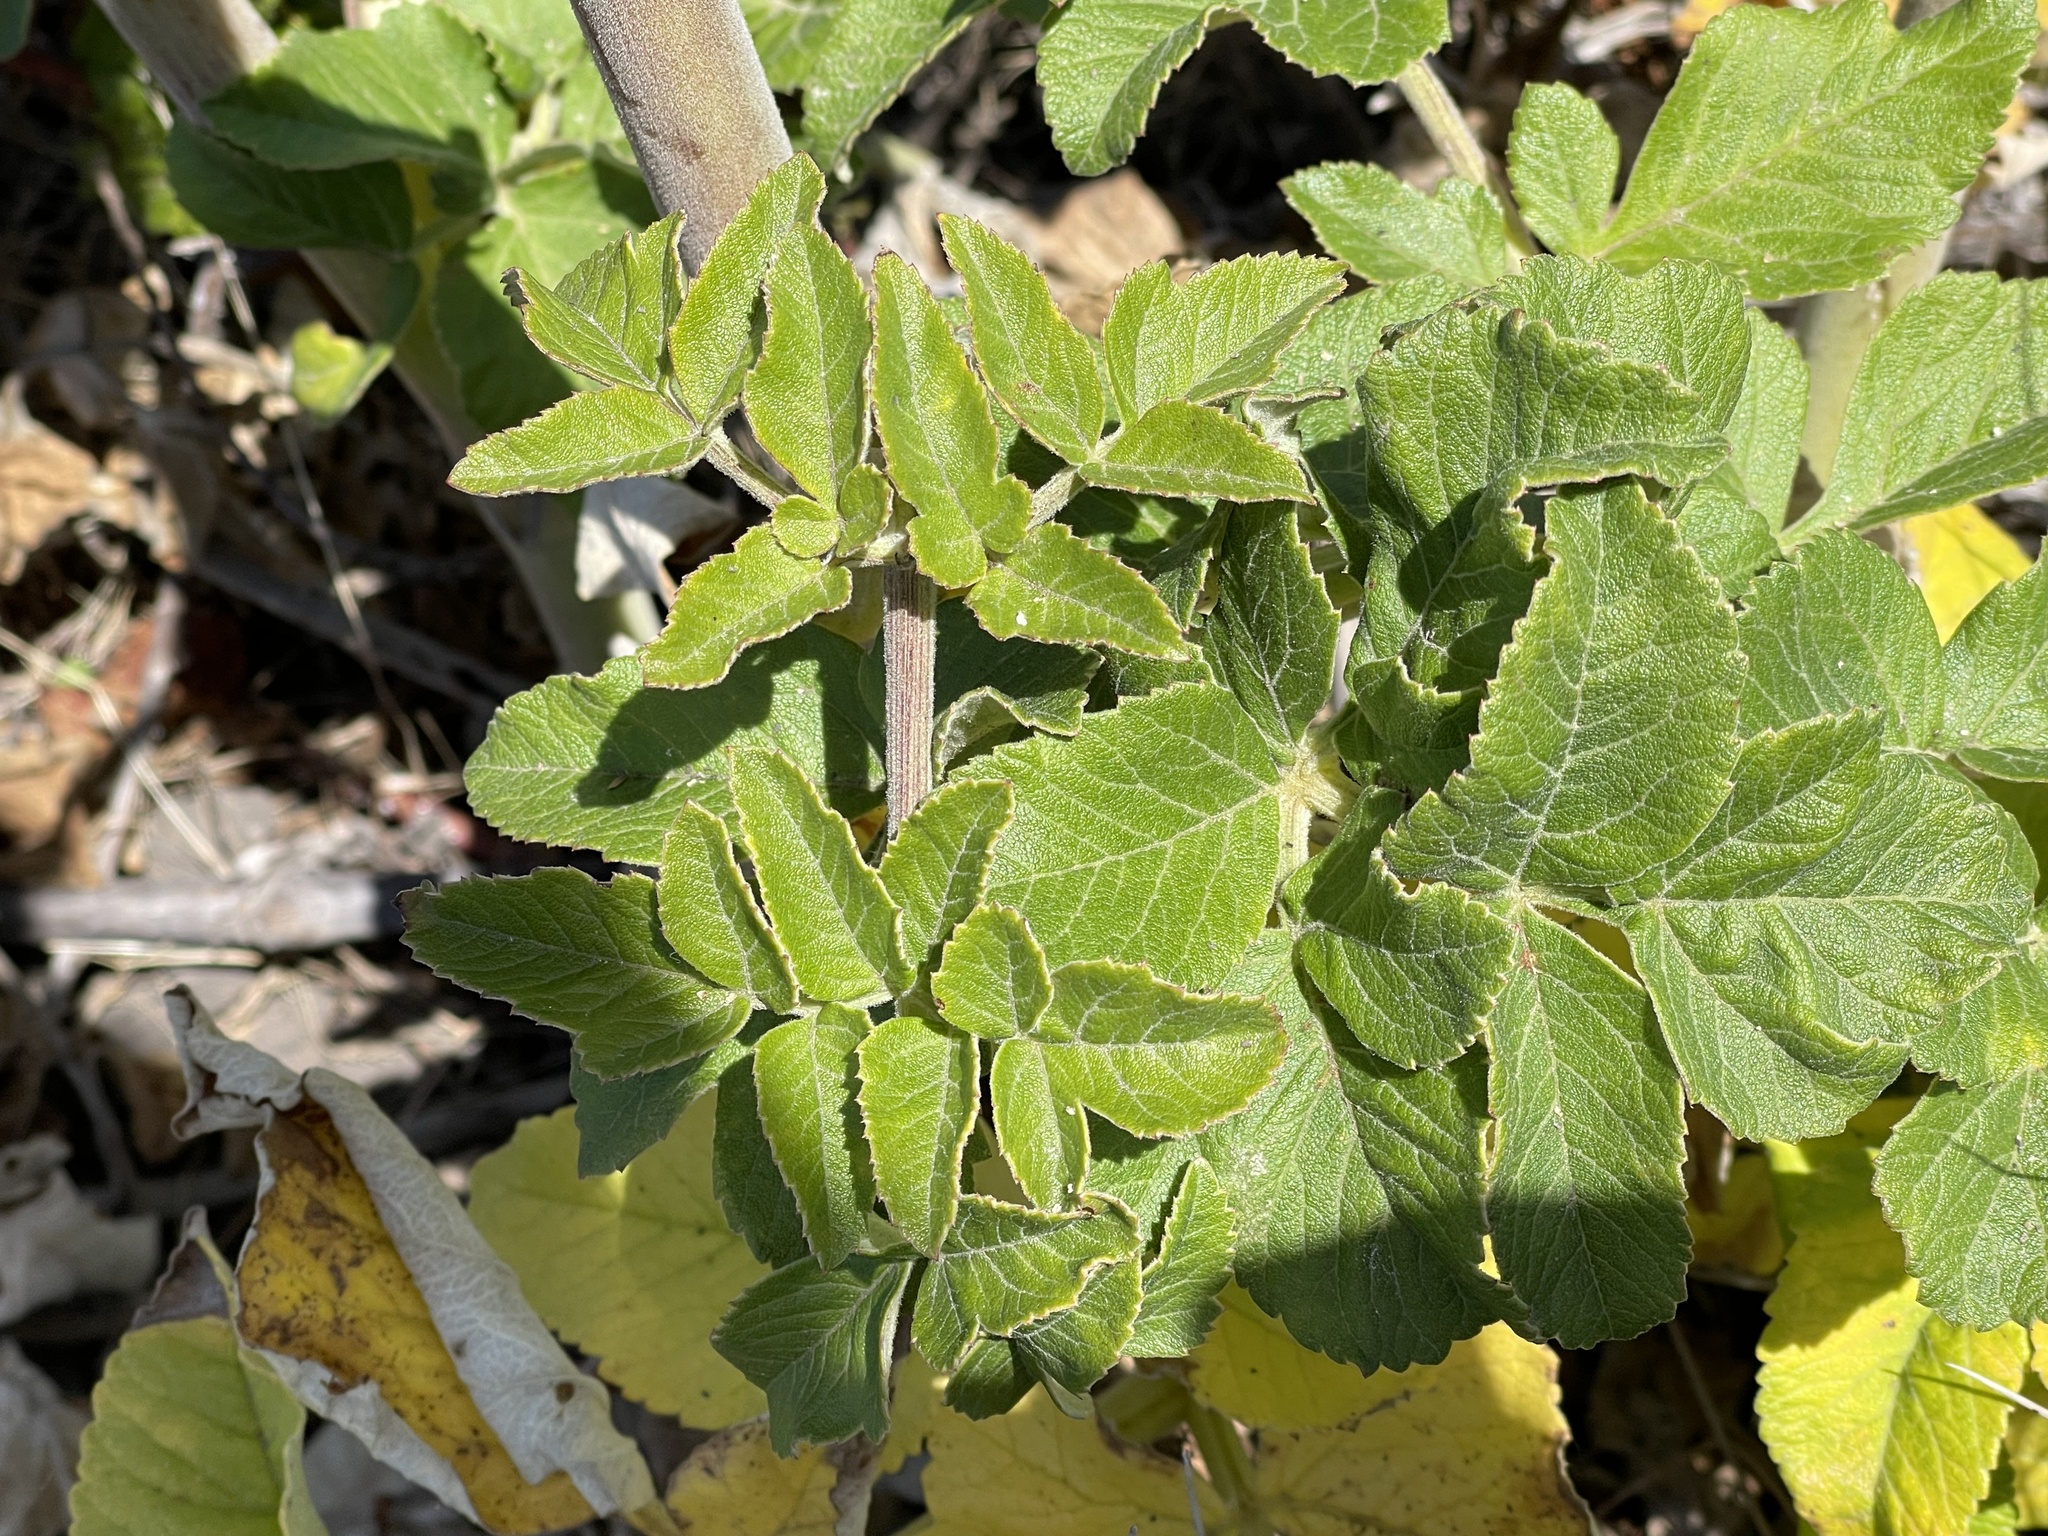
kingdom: Plantae
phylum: Tracheophyta
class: Magnoliopsida
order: Apiales
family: Apiaceae
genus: Angelica
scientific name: Angelica hendersonii
